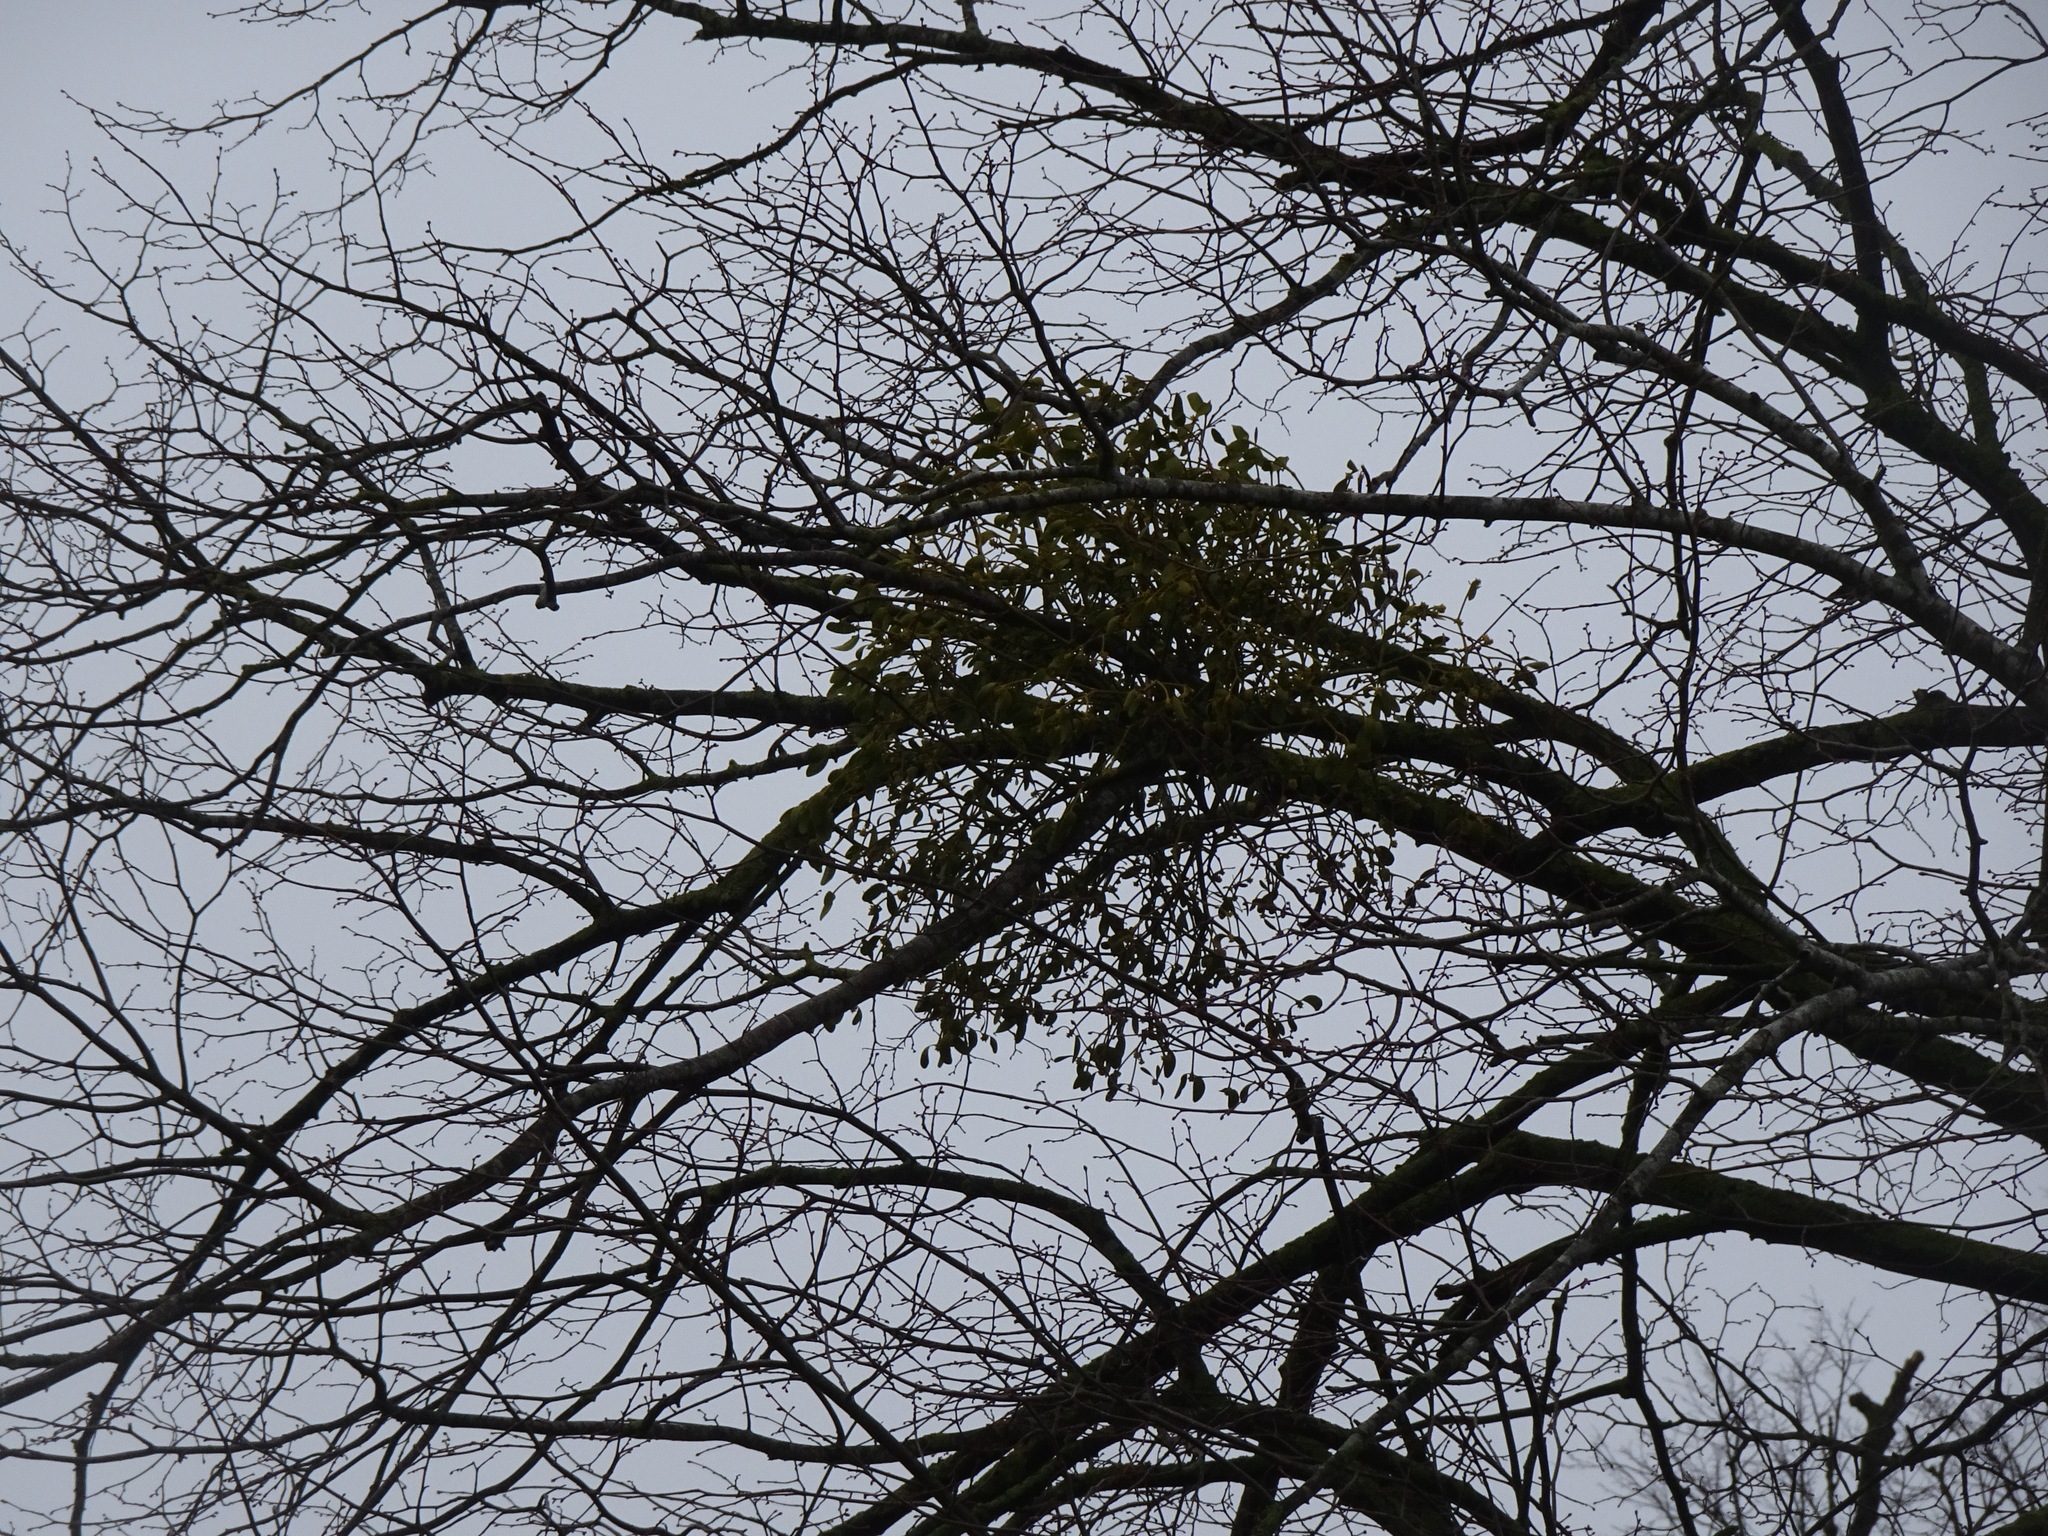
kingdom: Plantae
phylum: Tracheophyta
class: Magnoliopsida
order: Santalales
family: Viscaceae
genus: Viscum
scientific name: Viscum album
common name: Mistletoe
